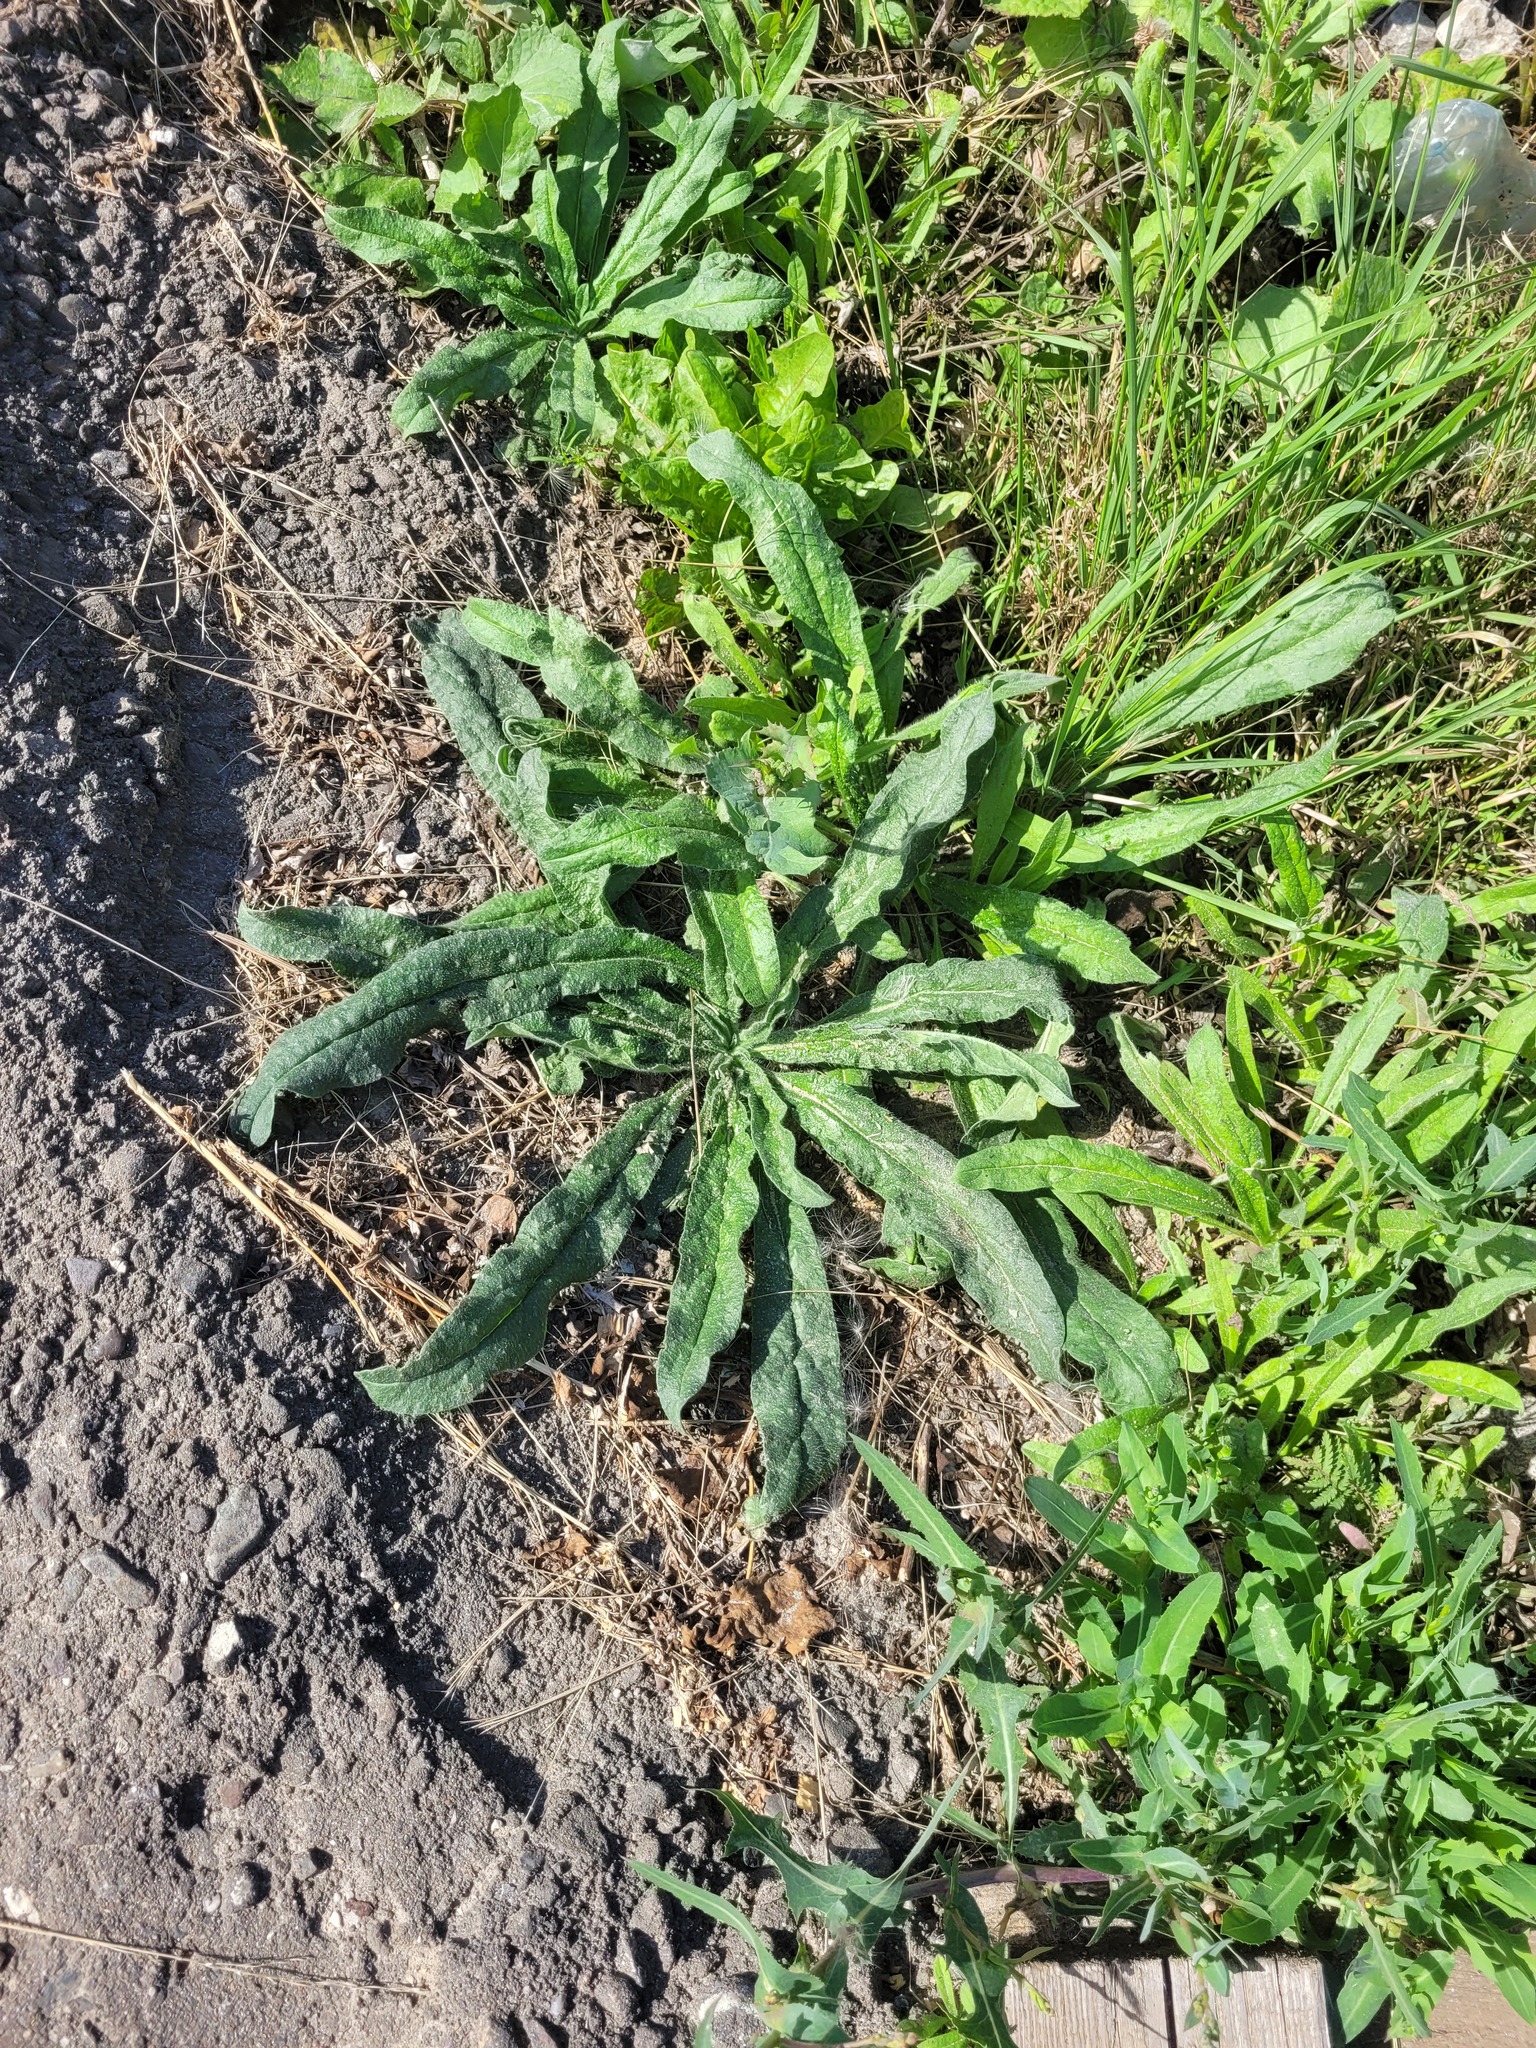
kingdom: Plantae
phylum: Tracheophyta
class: Magnoliopsida
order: Boraginales
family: Boraginaceae
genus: Echium
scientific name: Echium vulgare
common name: Common viper's bugloss
